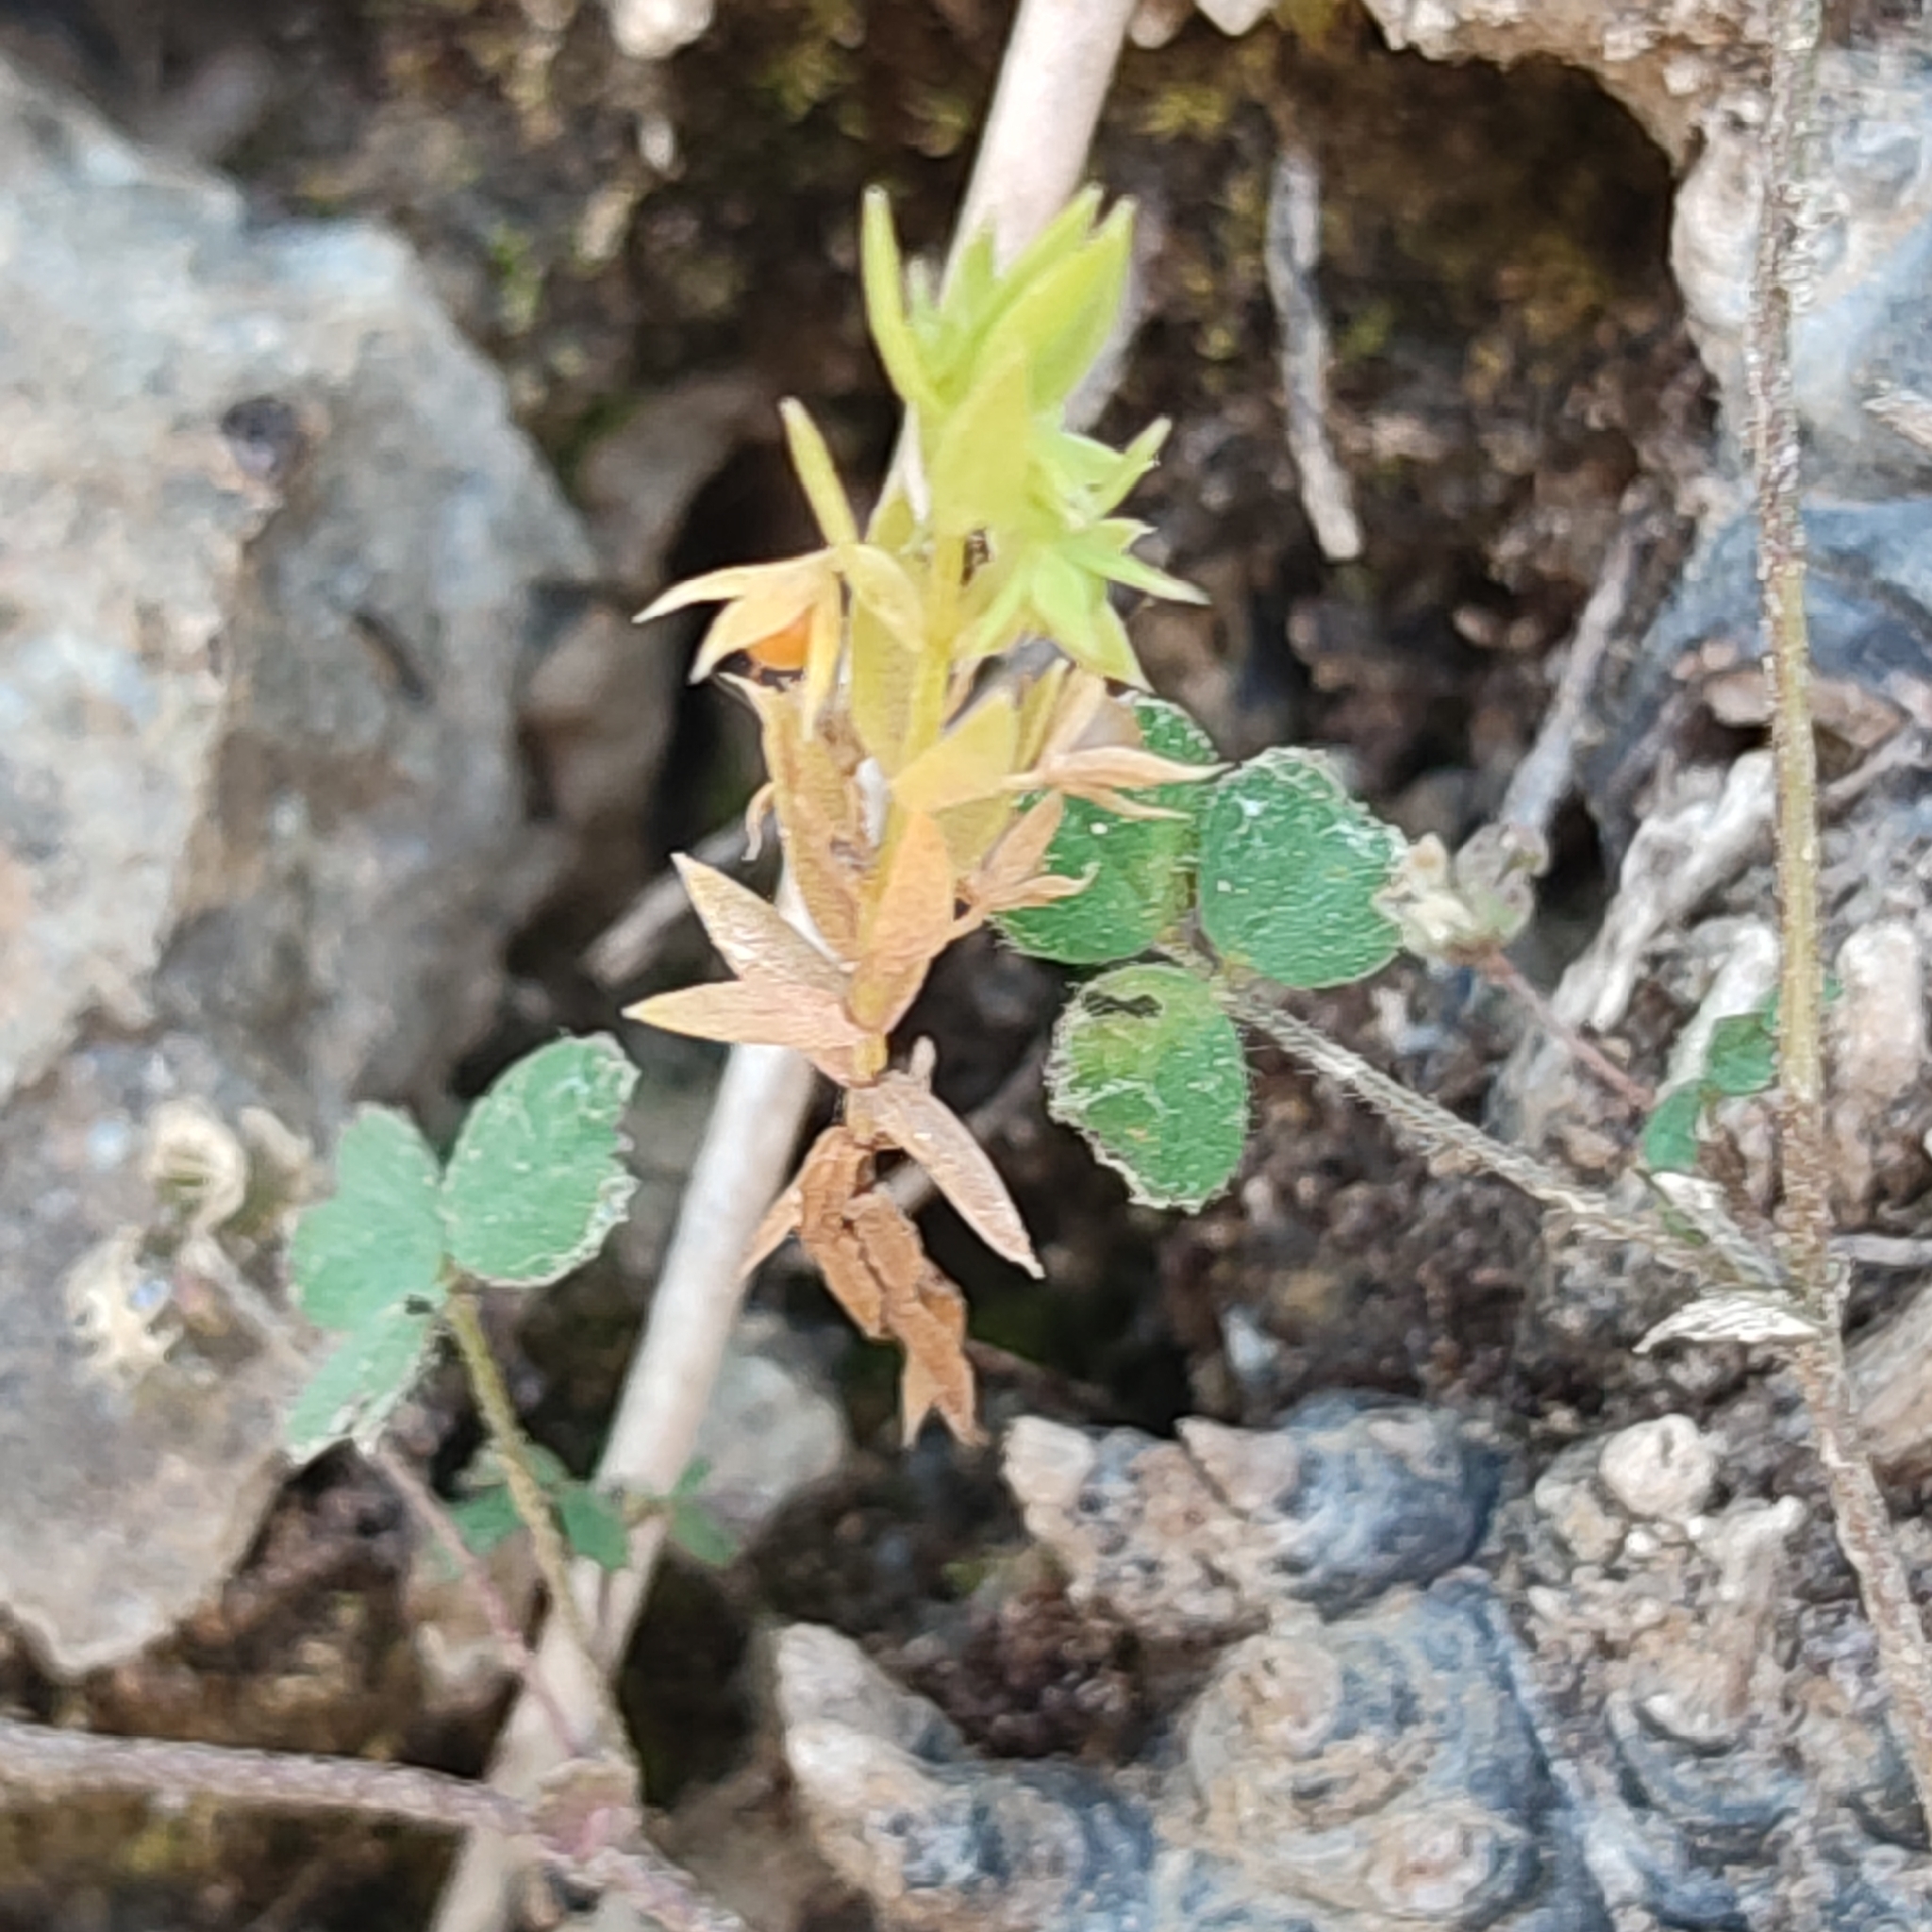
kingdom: Plantae
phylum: Tracheophyta
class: Magnoliopsida
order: Ericales
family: Primulaceae
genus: Lysimachia
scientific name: Lysimachia linum-stellatum
